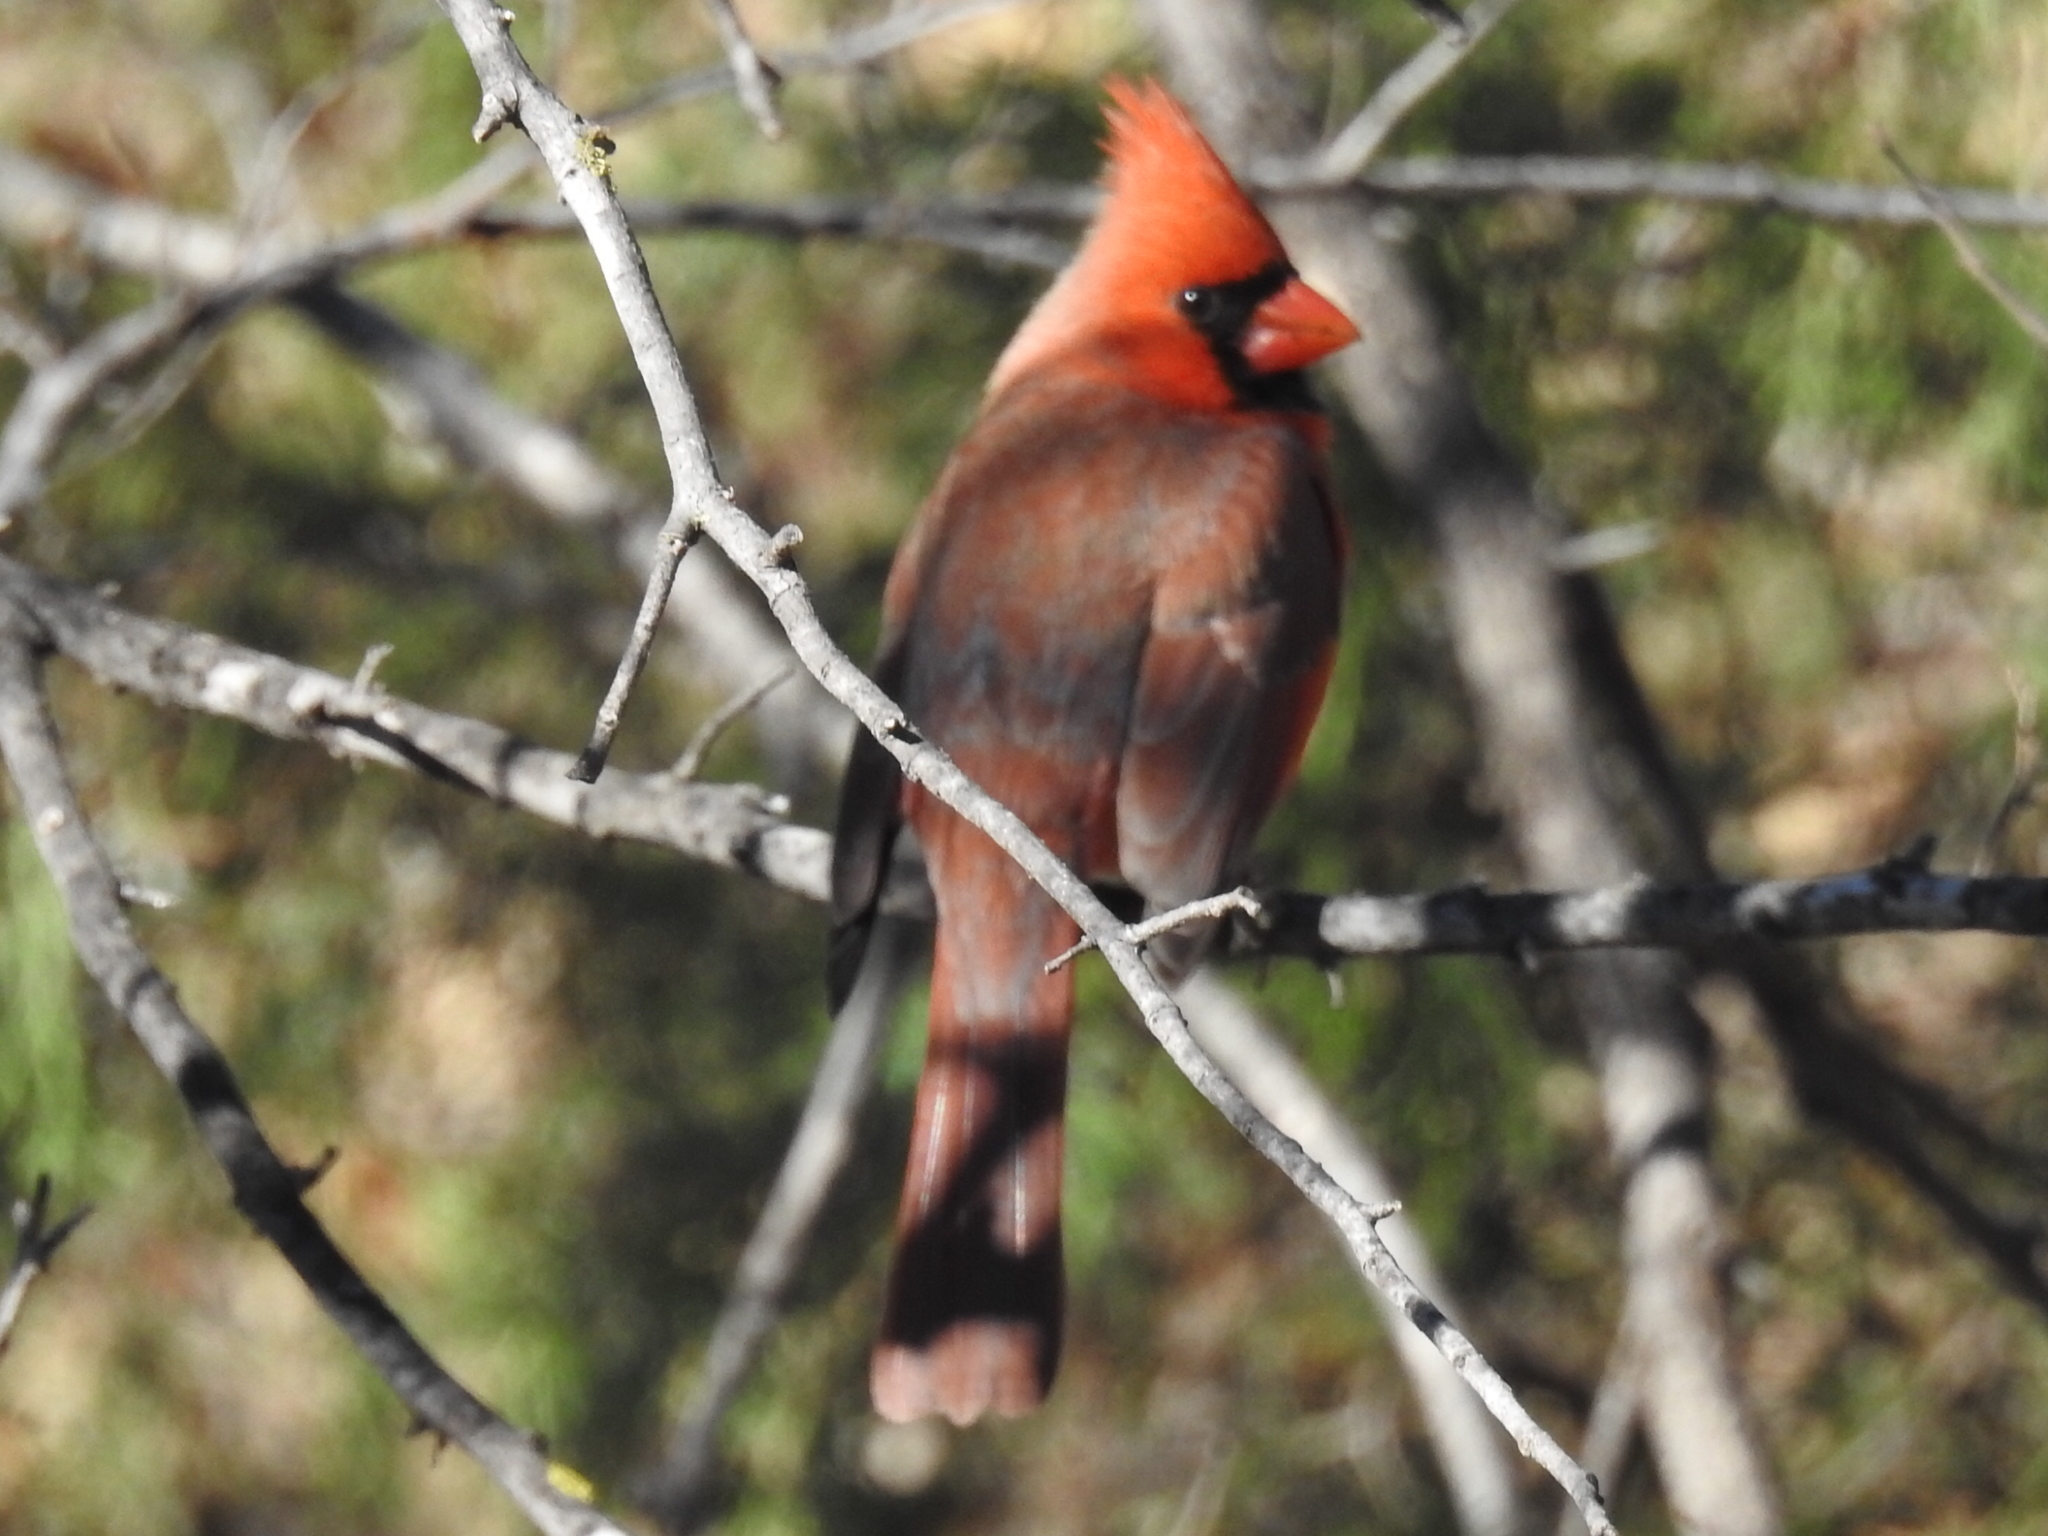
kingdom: Animalia
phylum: Chordata
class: Aves
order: Passeriformes
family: Cardinalidae
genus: Cardinalis
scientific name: Cardinalis cardinalis
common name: Northern cardinal
